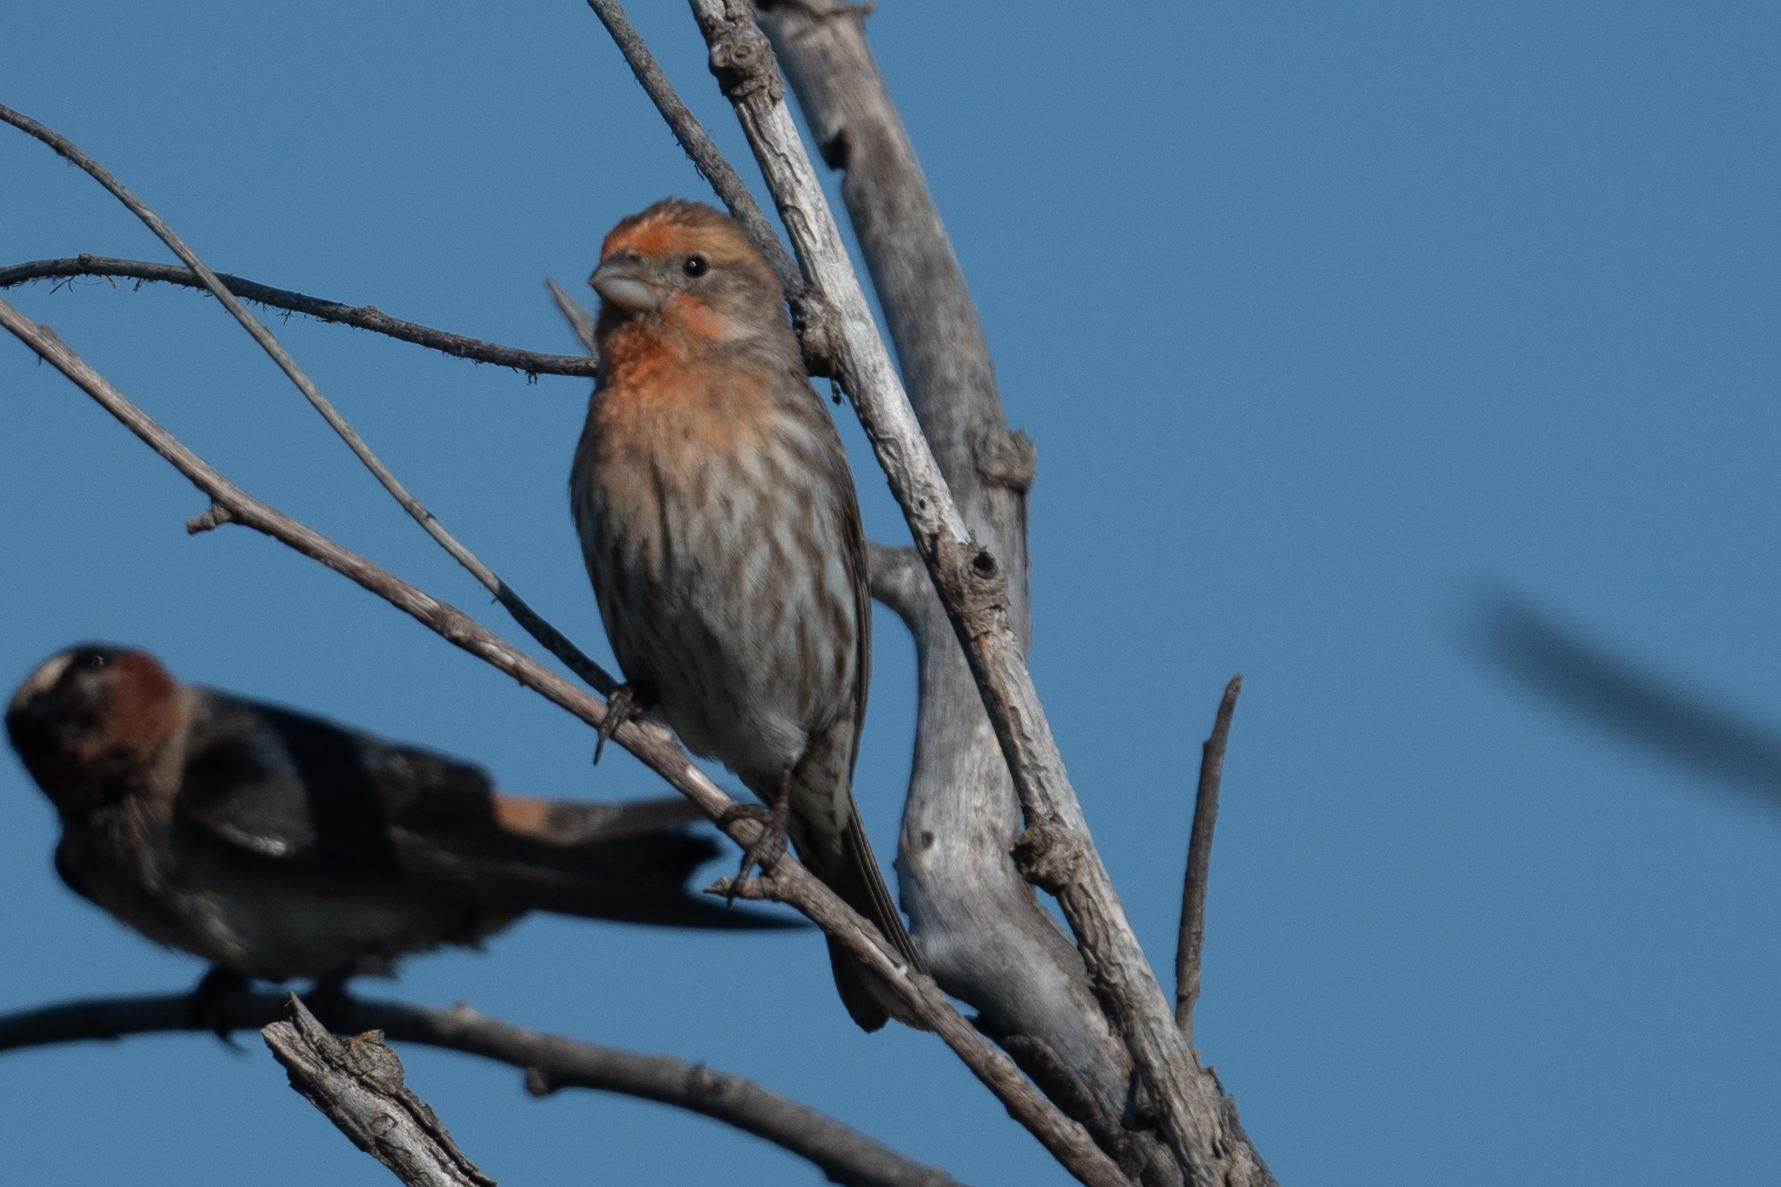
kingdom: Animalia
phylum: Chordata
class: Aves
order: Passeriformes
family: Fringillidae
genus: Haemorhous
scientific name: Haemorhous mexicanus
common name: House finch
